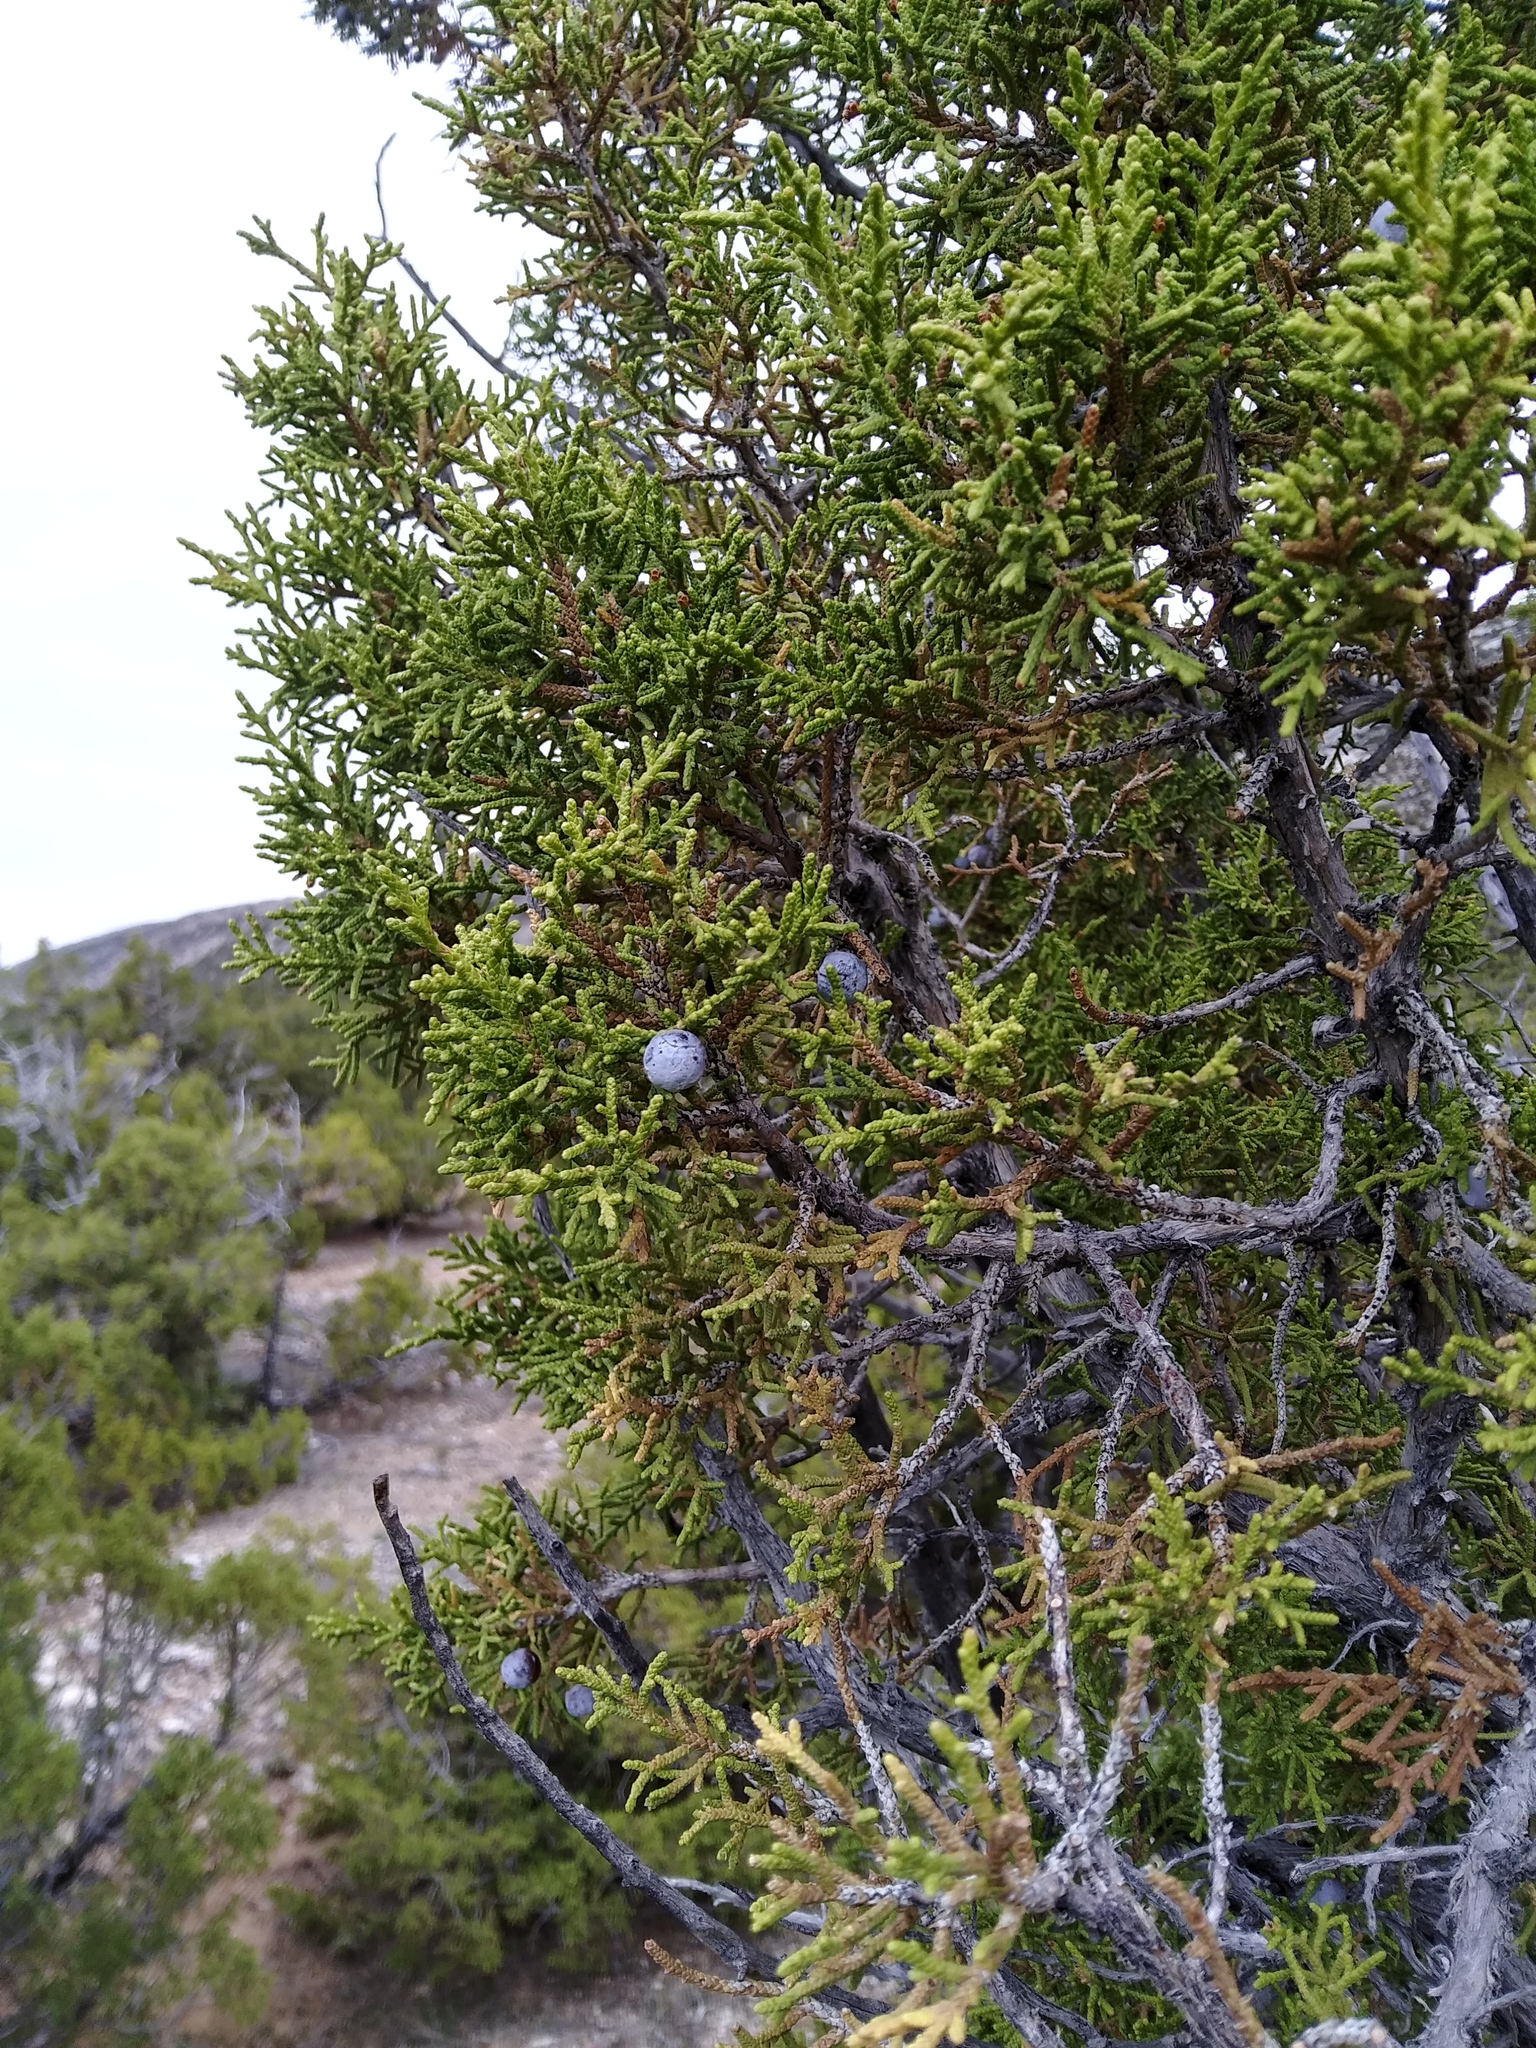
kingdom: Plantae
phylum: Tracheophyta
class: Pinopsida
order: Pinales
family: Cupressaceae
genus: Juniperus
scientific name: Juniperus osteosperma
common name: Utah juniper
